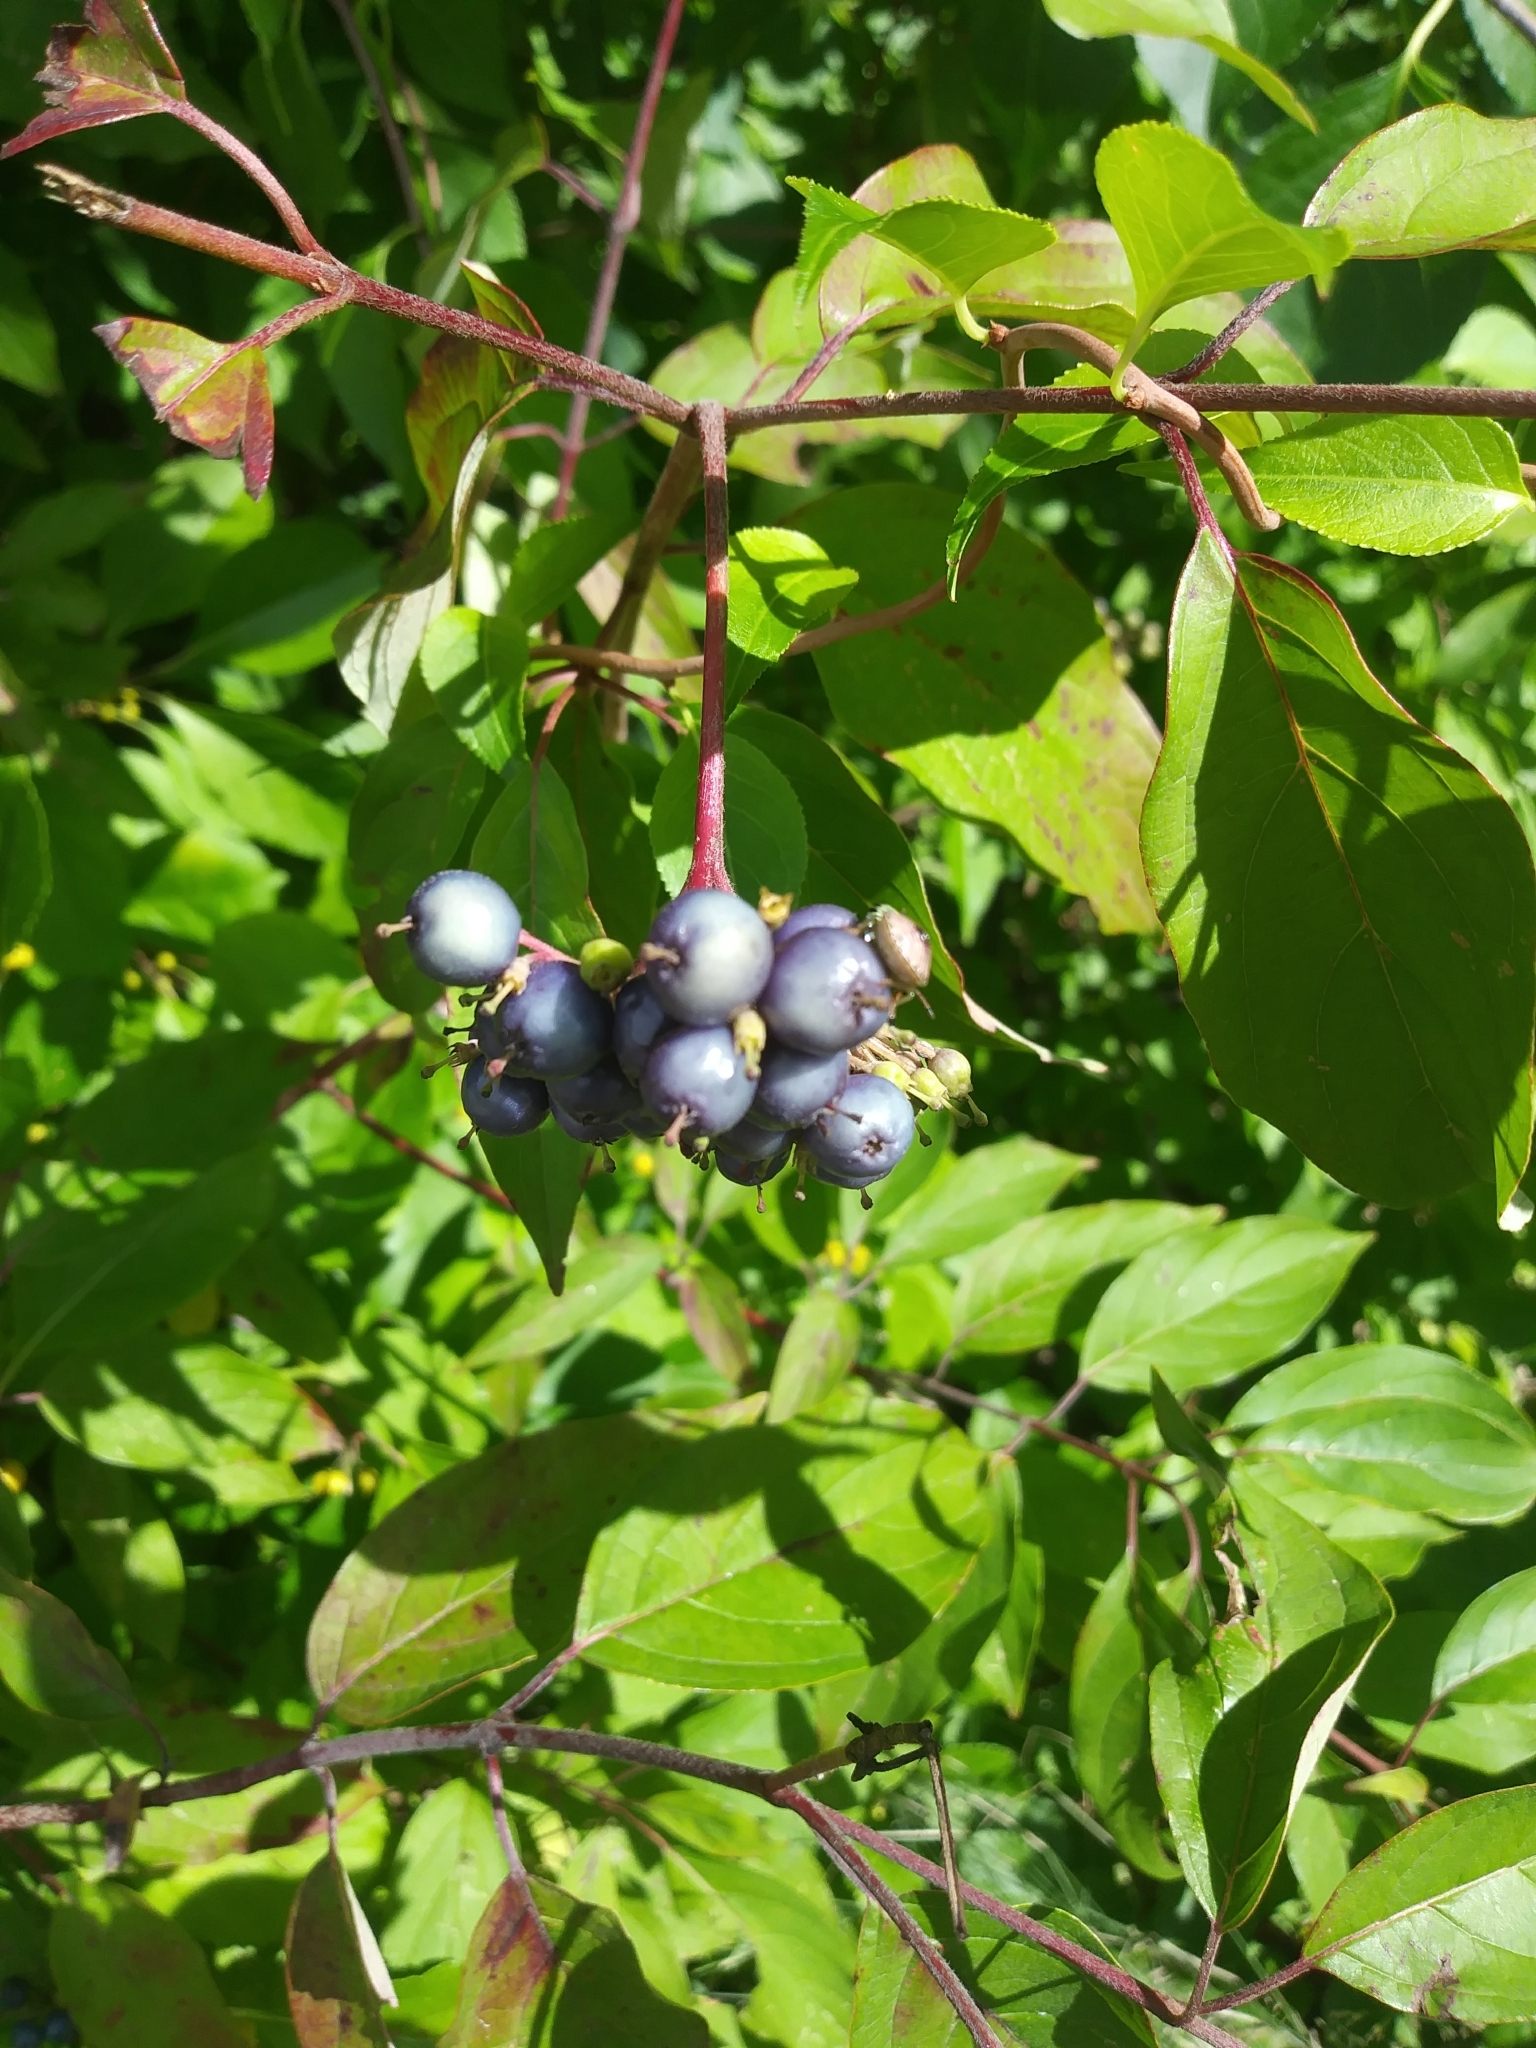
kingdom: Plantae
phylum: Tracheophyta
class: Magnoliopsida
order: Cornales
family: Cornaceae
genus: Cornus
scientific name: Cornus amomum
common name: Silky dogwood
